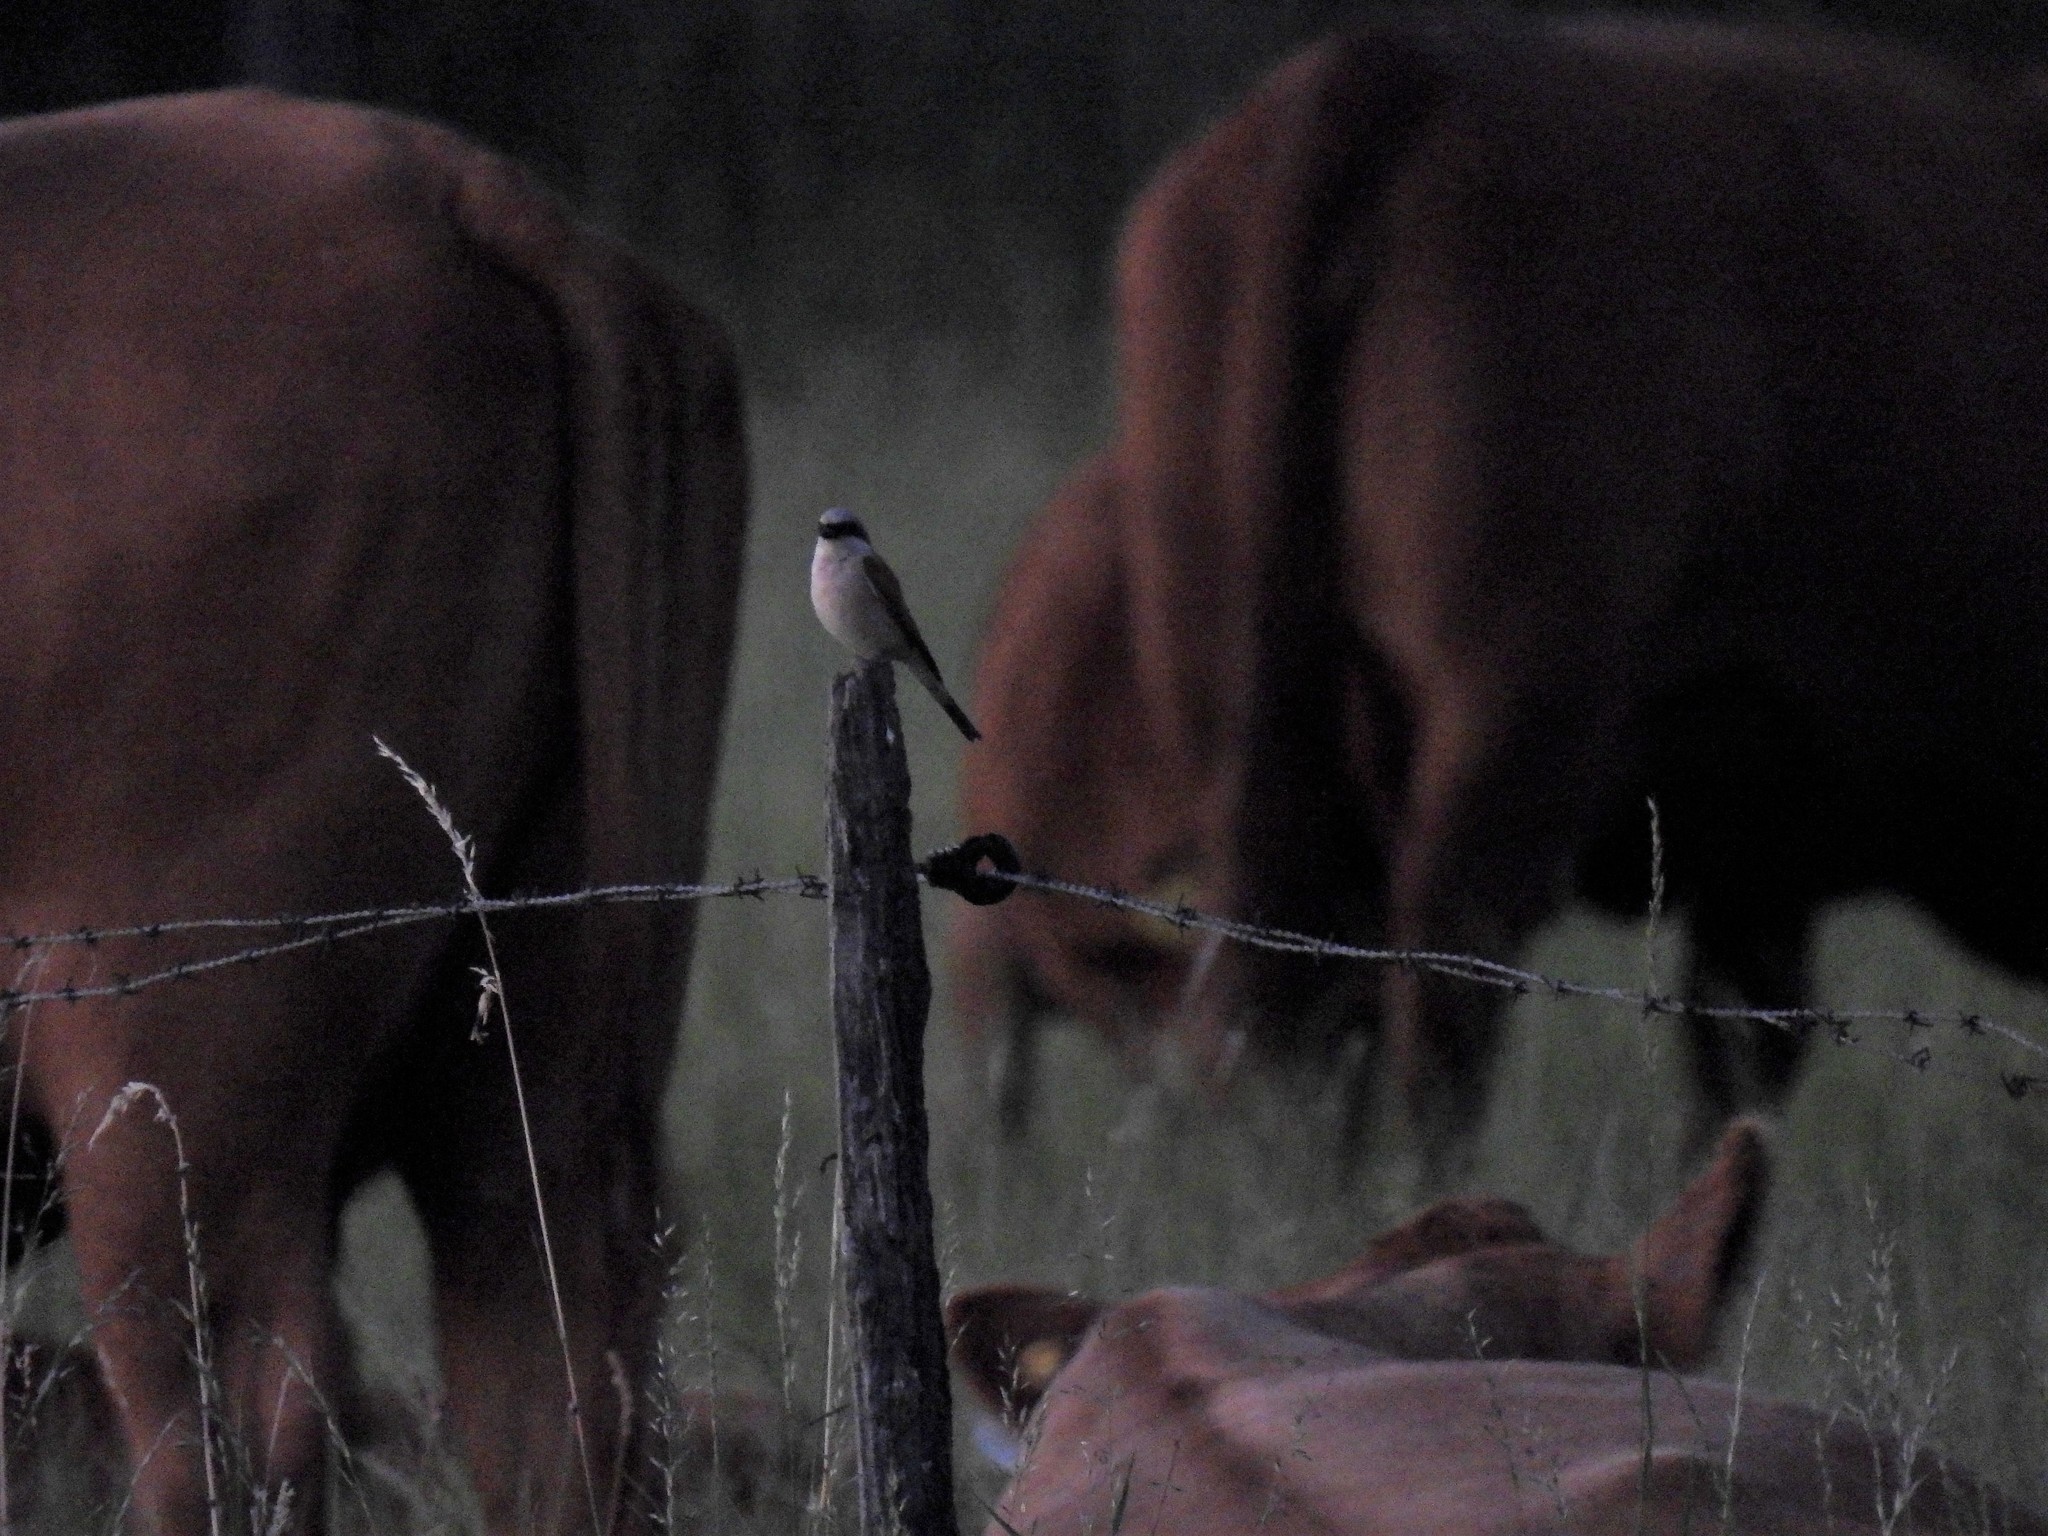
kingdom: Animalia
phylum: Chordata
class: Aves
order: Passeriformes
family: Laniidae
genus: Lanius
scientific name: Lanius collurio
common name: Red-backed shrike
